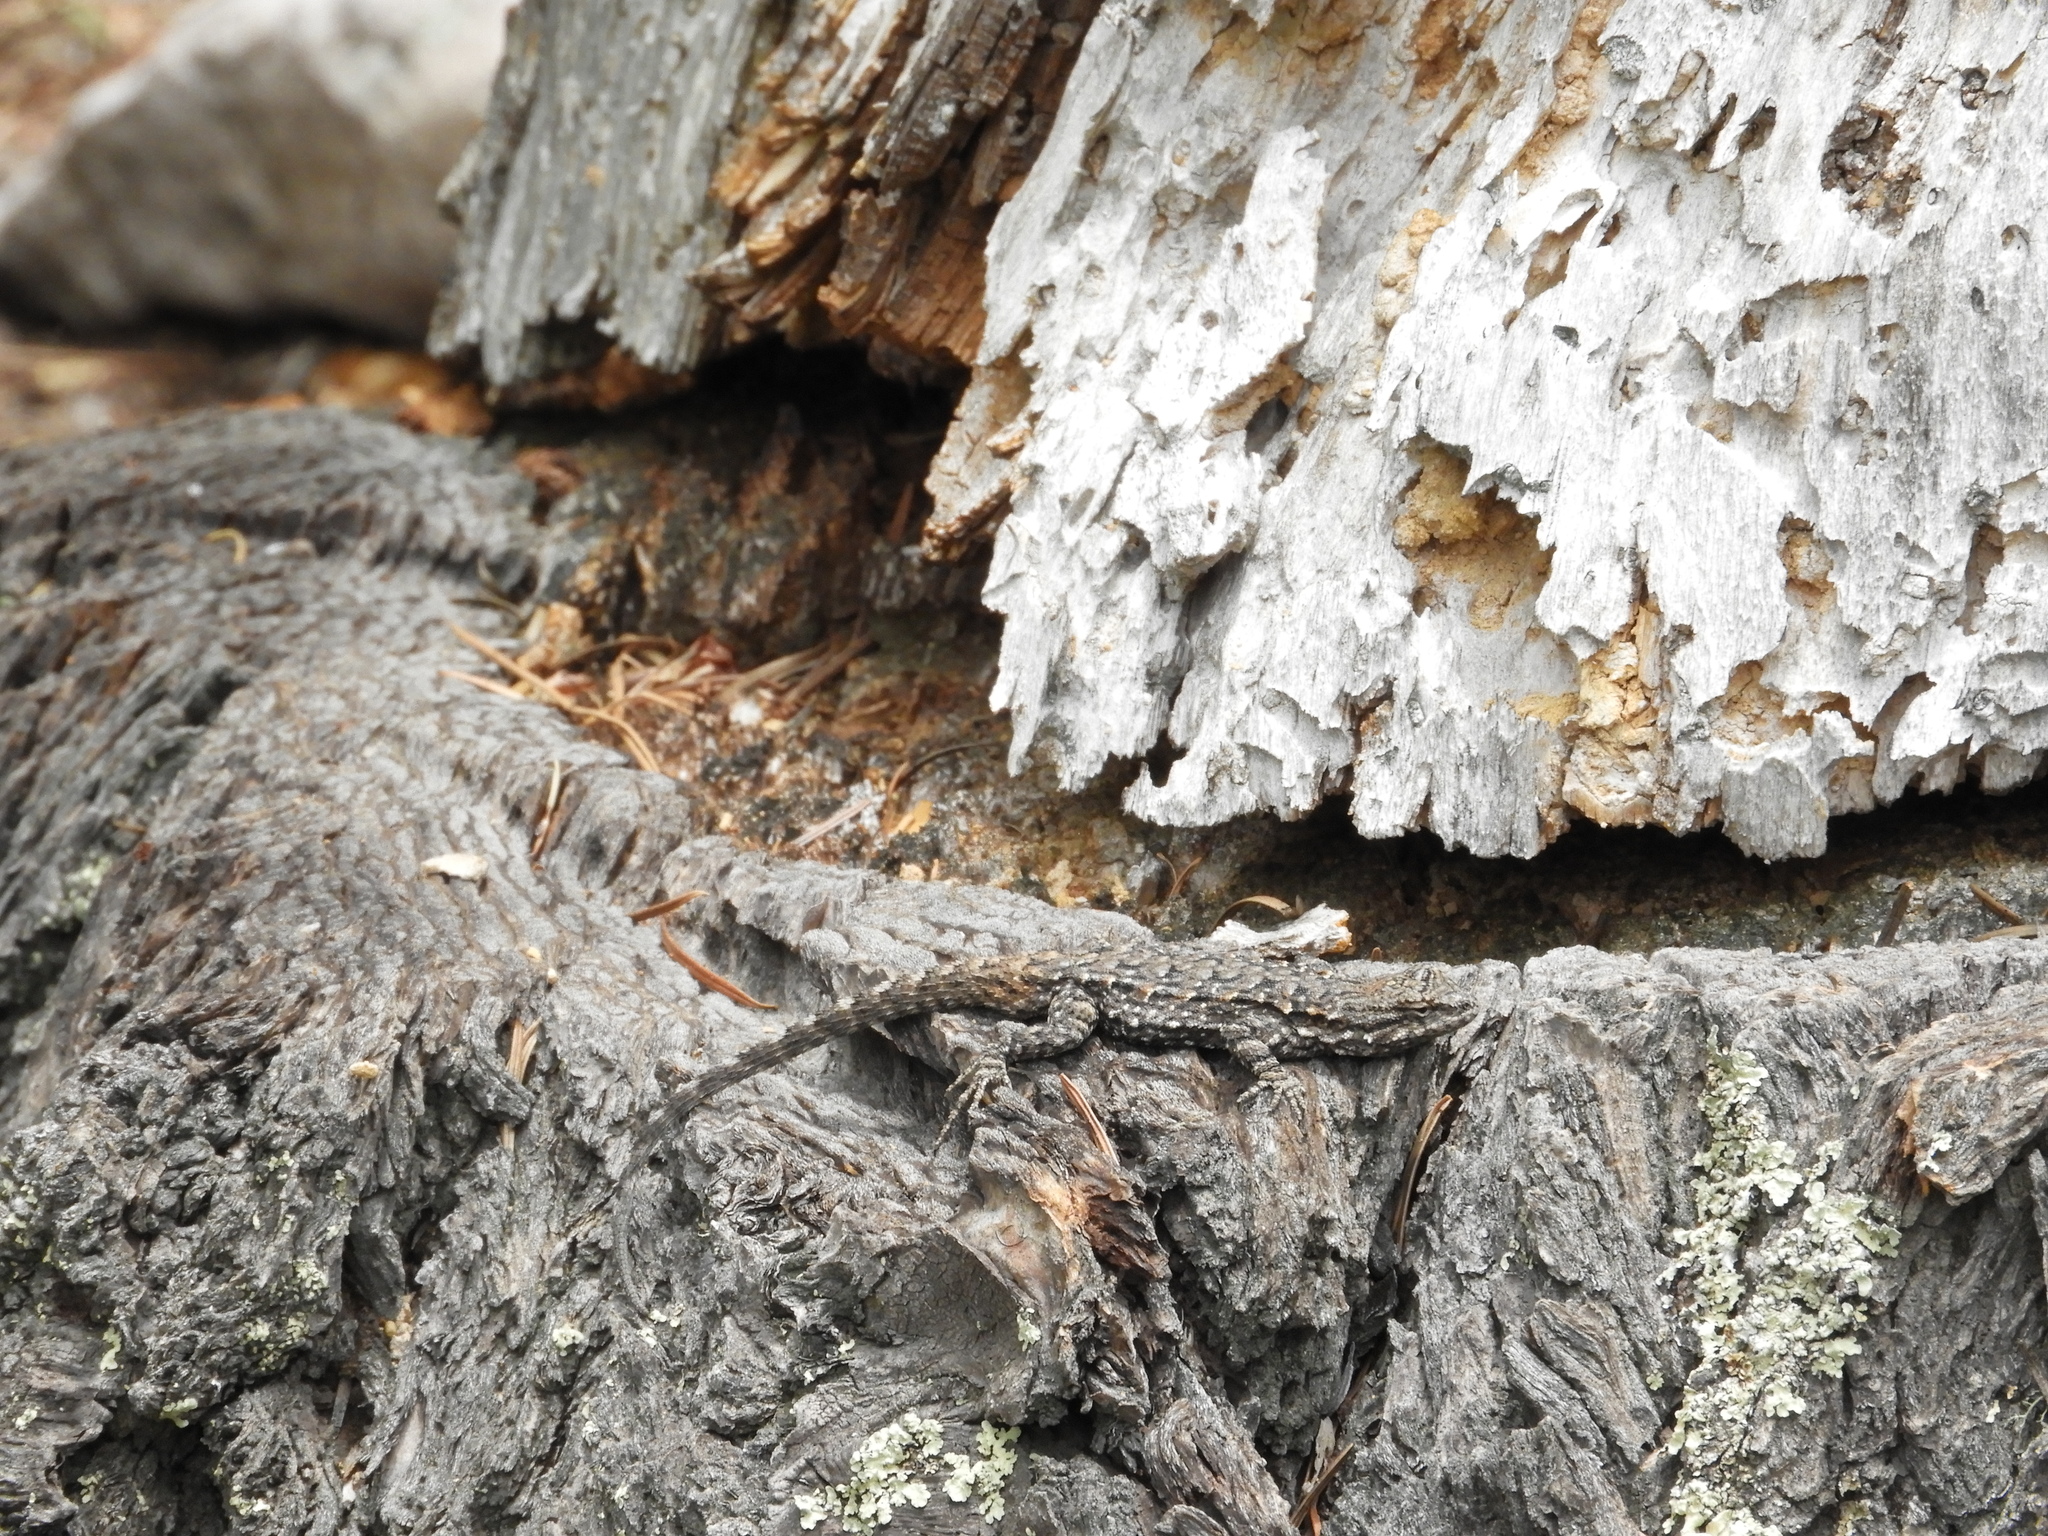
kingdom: Animalia
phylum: Chordata
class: Squamata
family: Phrynosomatidae
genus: Urosaurus
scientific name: Urosaurus ornatus
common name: Ornate tree lizard
